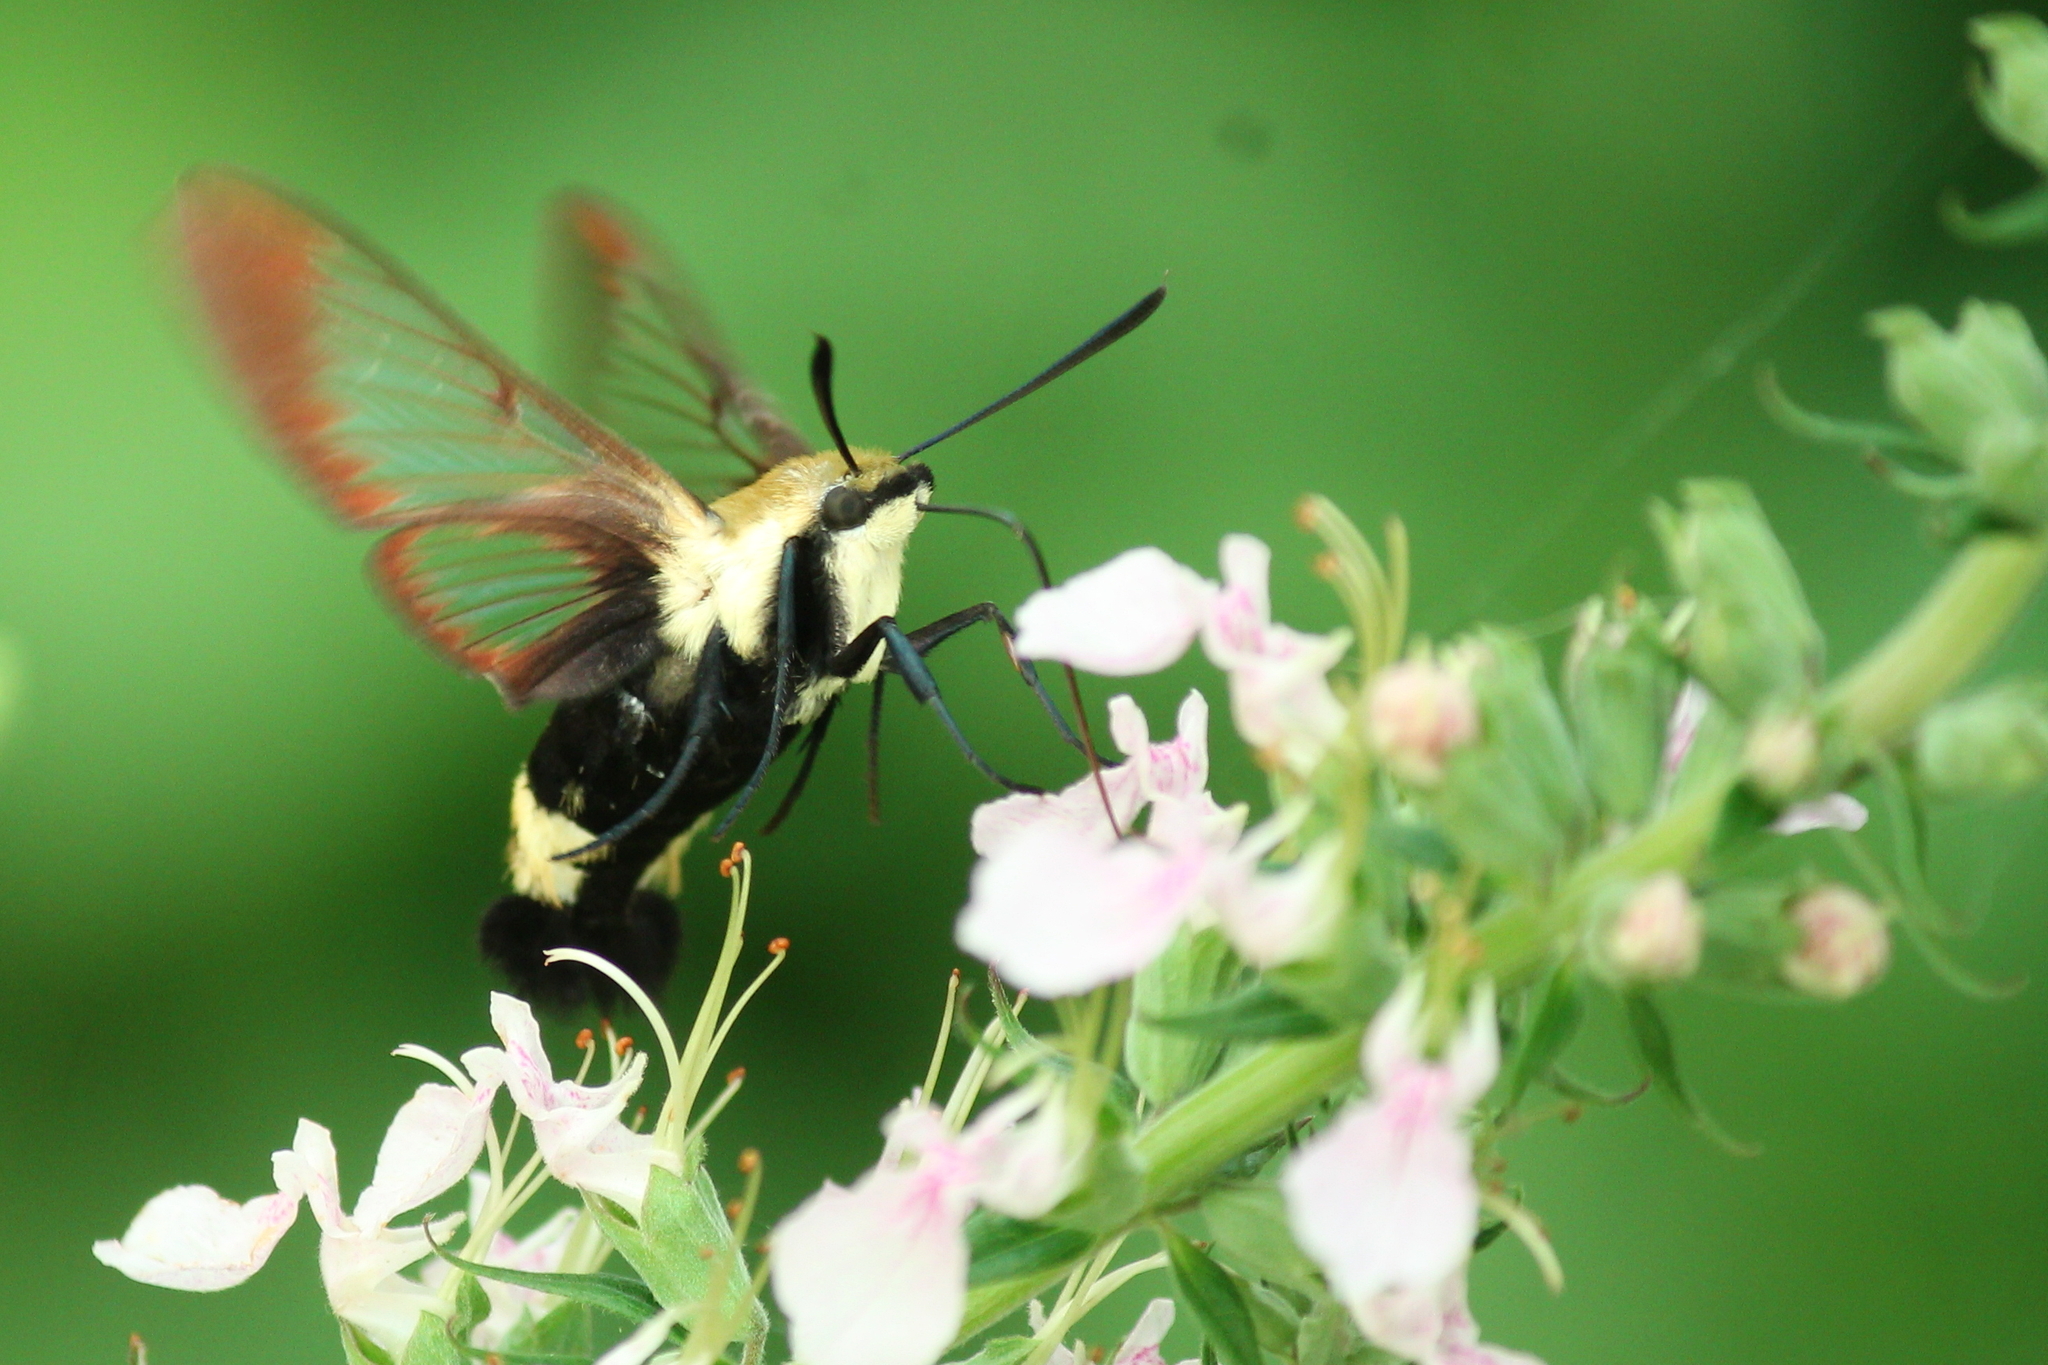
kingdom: Animalia
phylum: Arthropoda
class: Insecta
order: Lepidoptera
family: Sphingidae
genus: Hemaris
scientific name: Hemaris diffinis
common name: Bumblebee moth
